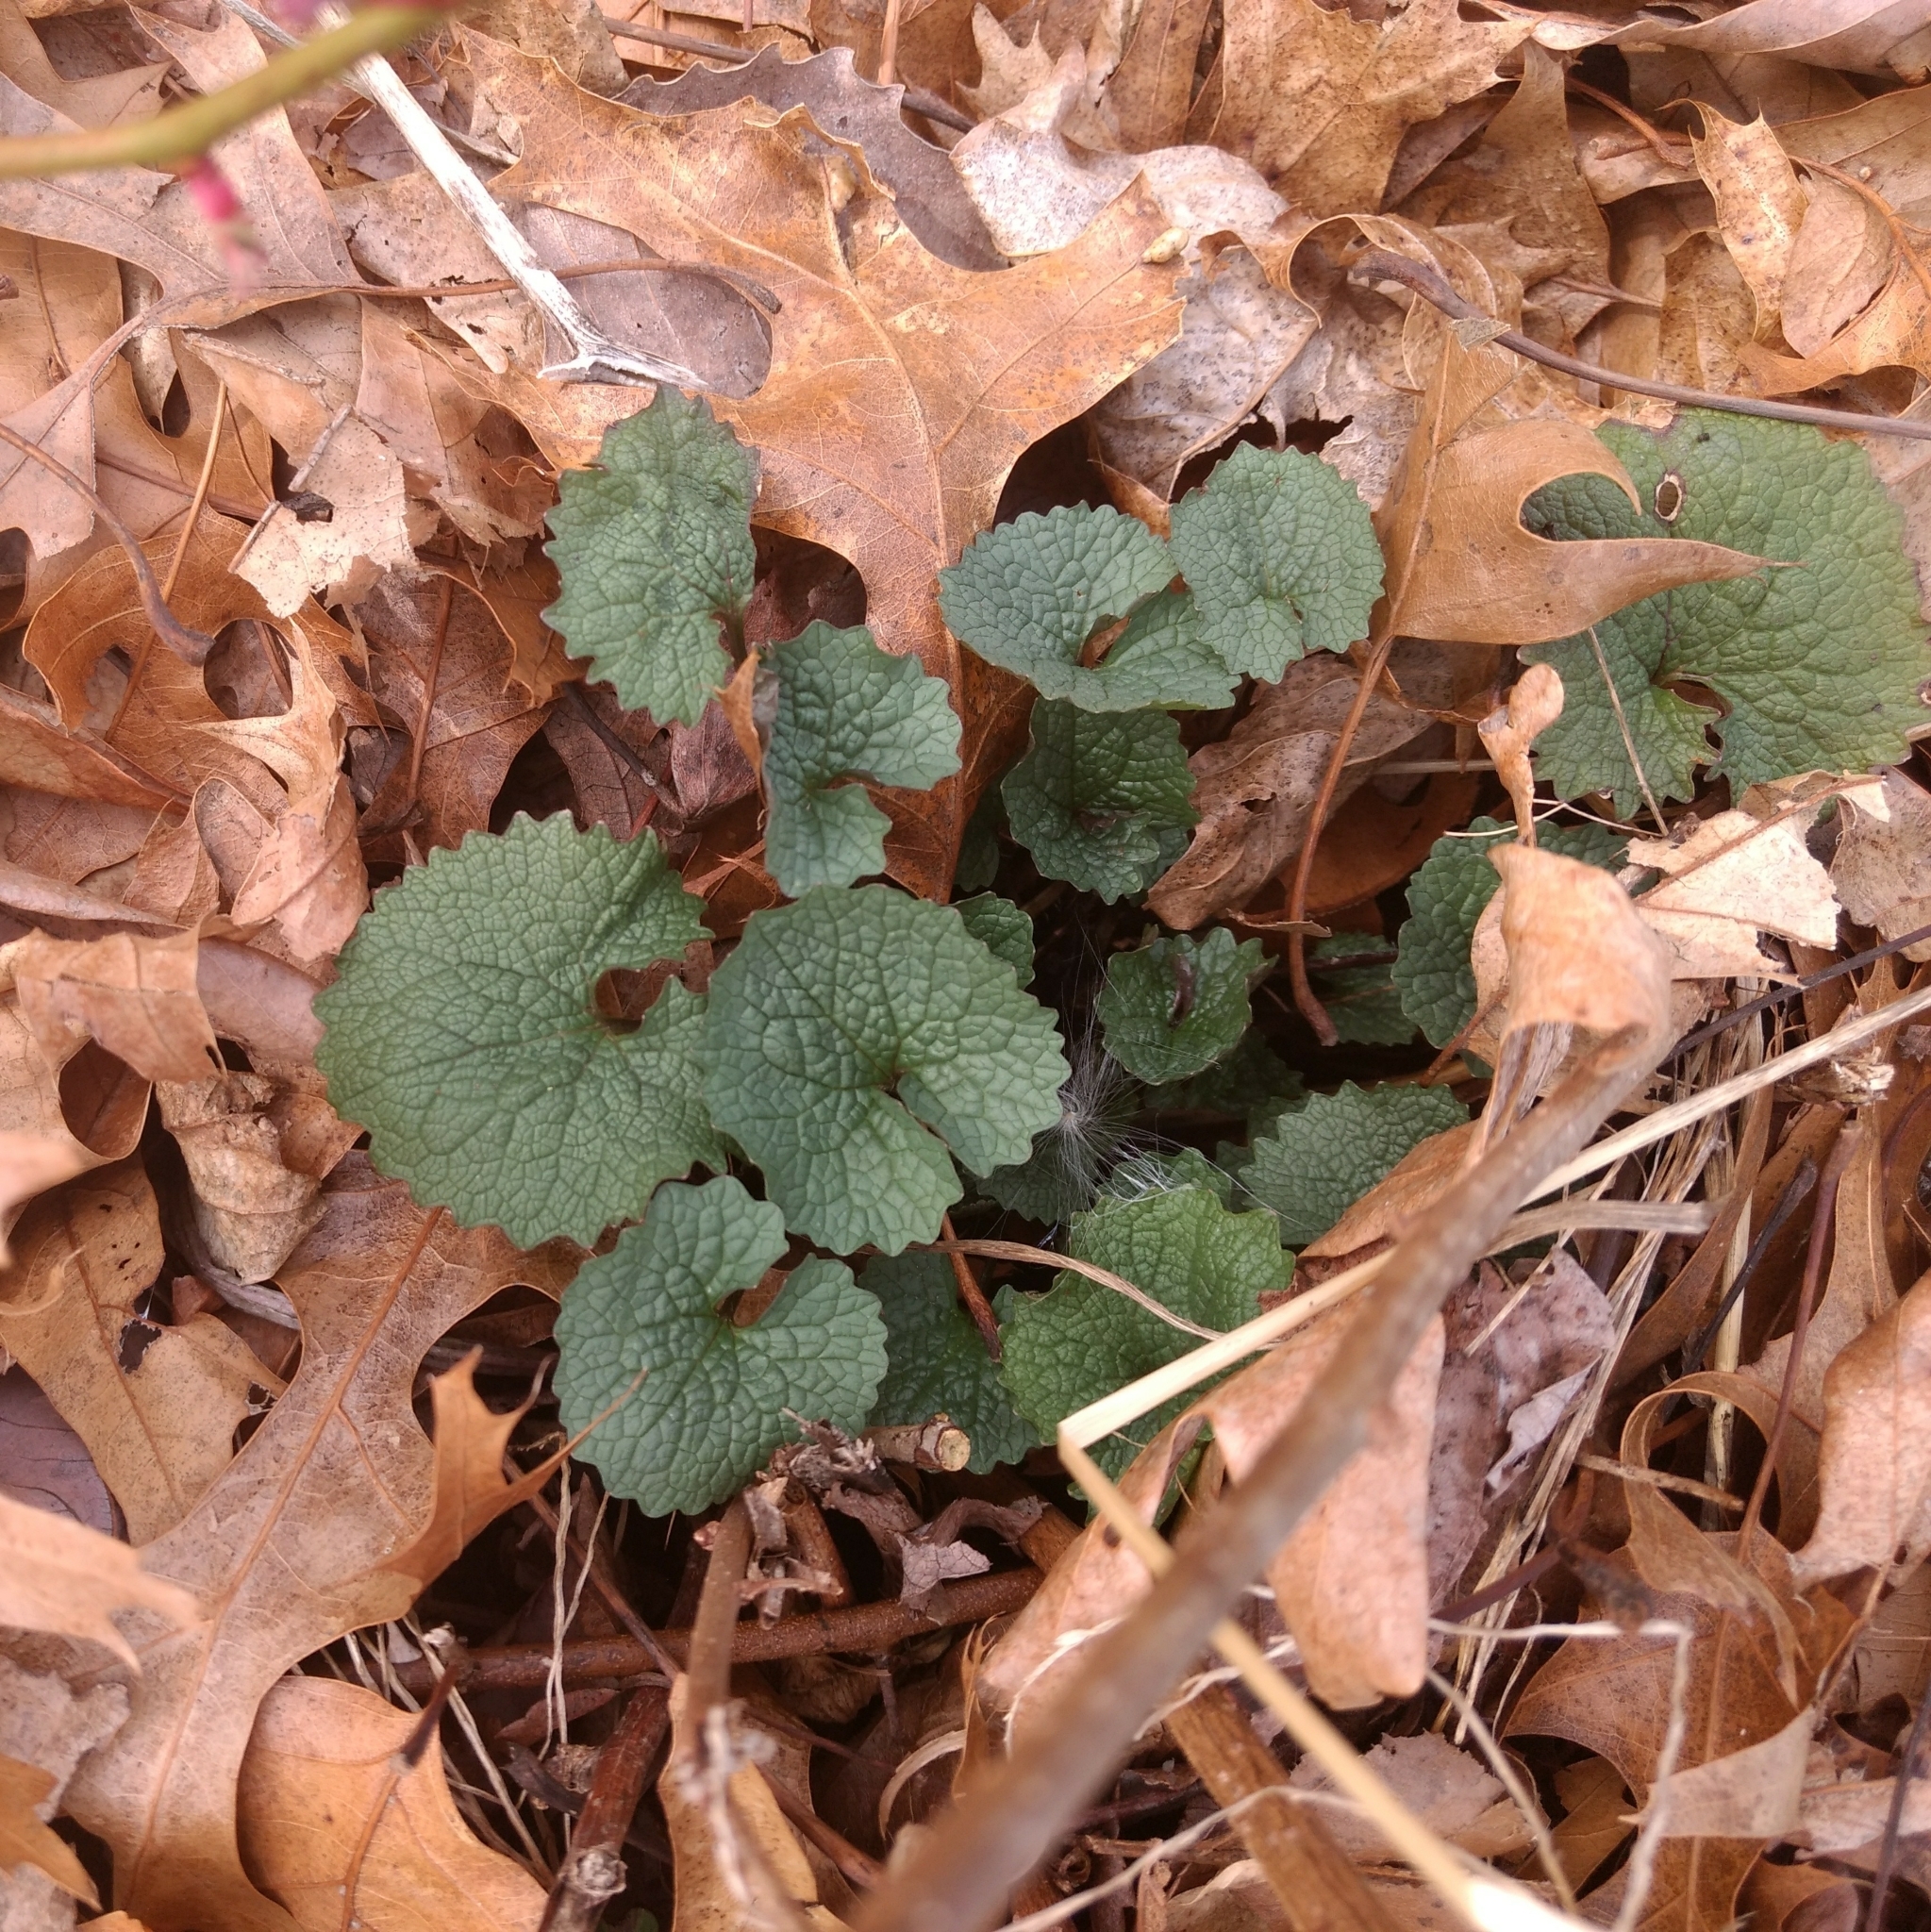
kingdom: Plantae
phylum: Tracheophyta
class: Magnoliopsida
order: Brassicales
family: Brassicaceae
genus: Alliaria
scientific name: Alliaria petiolata
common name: Garlic mustard
